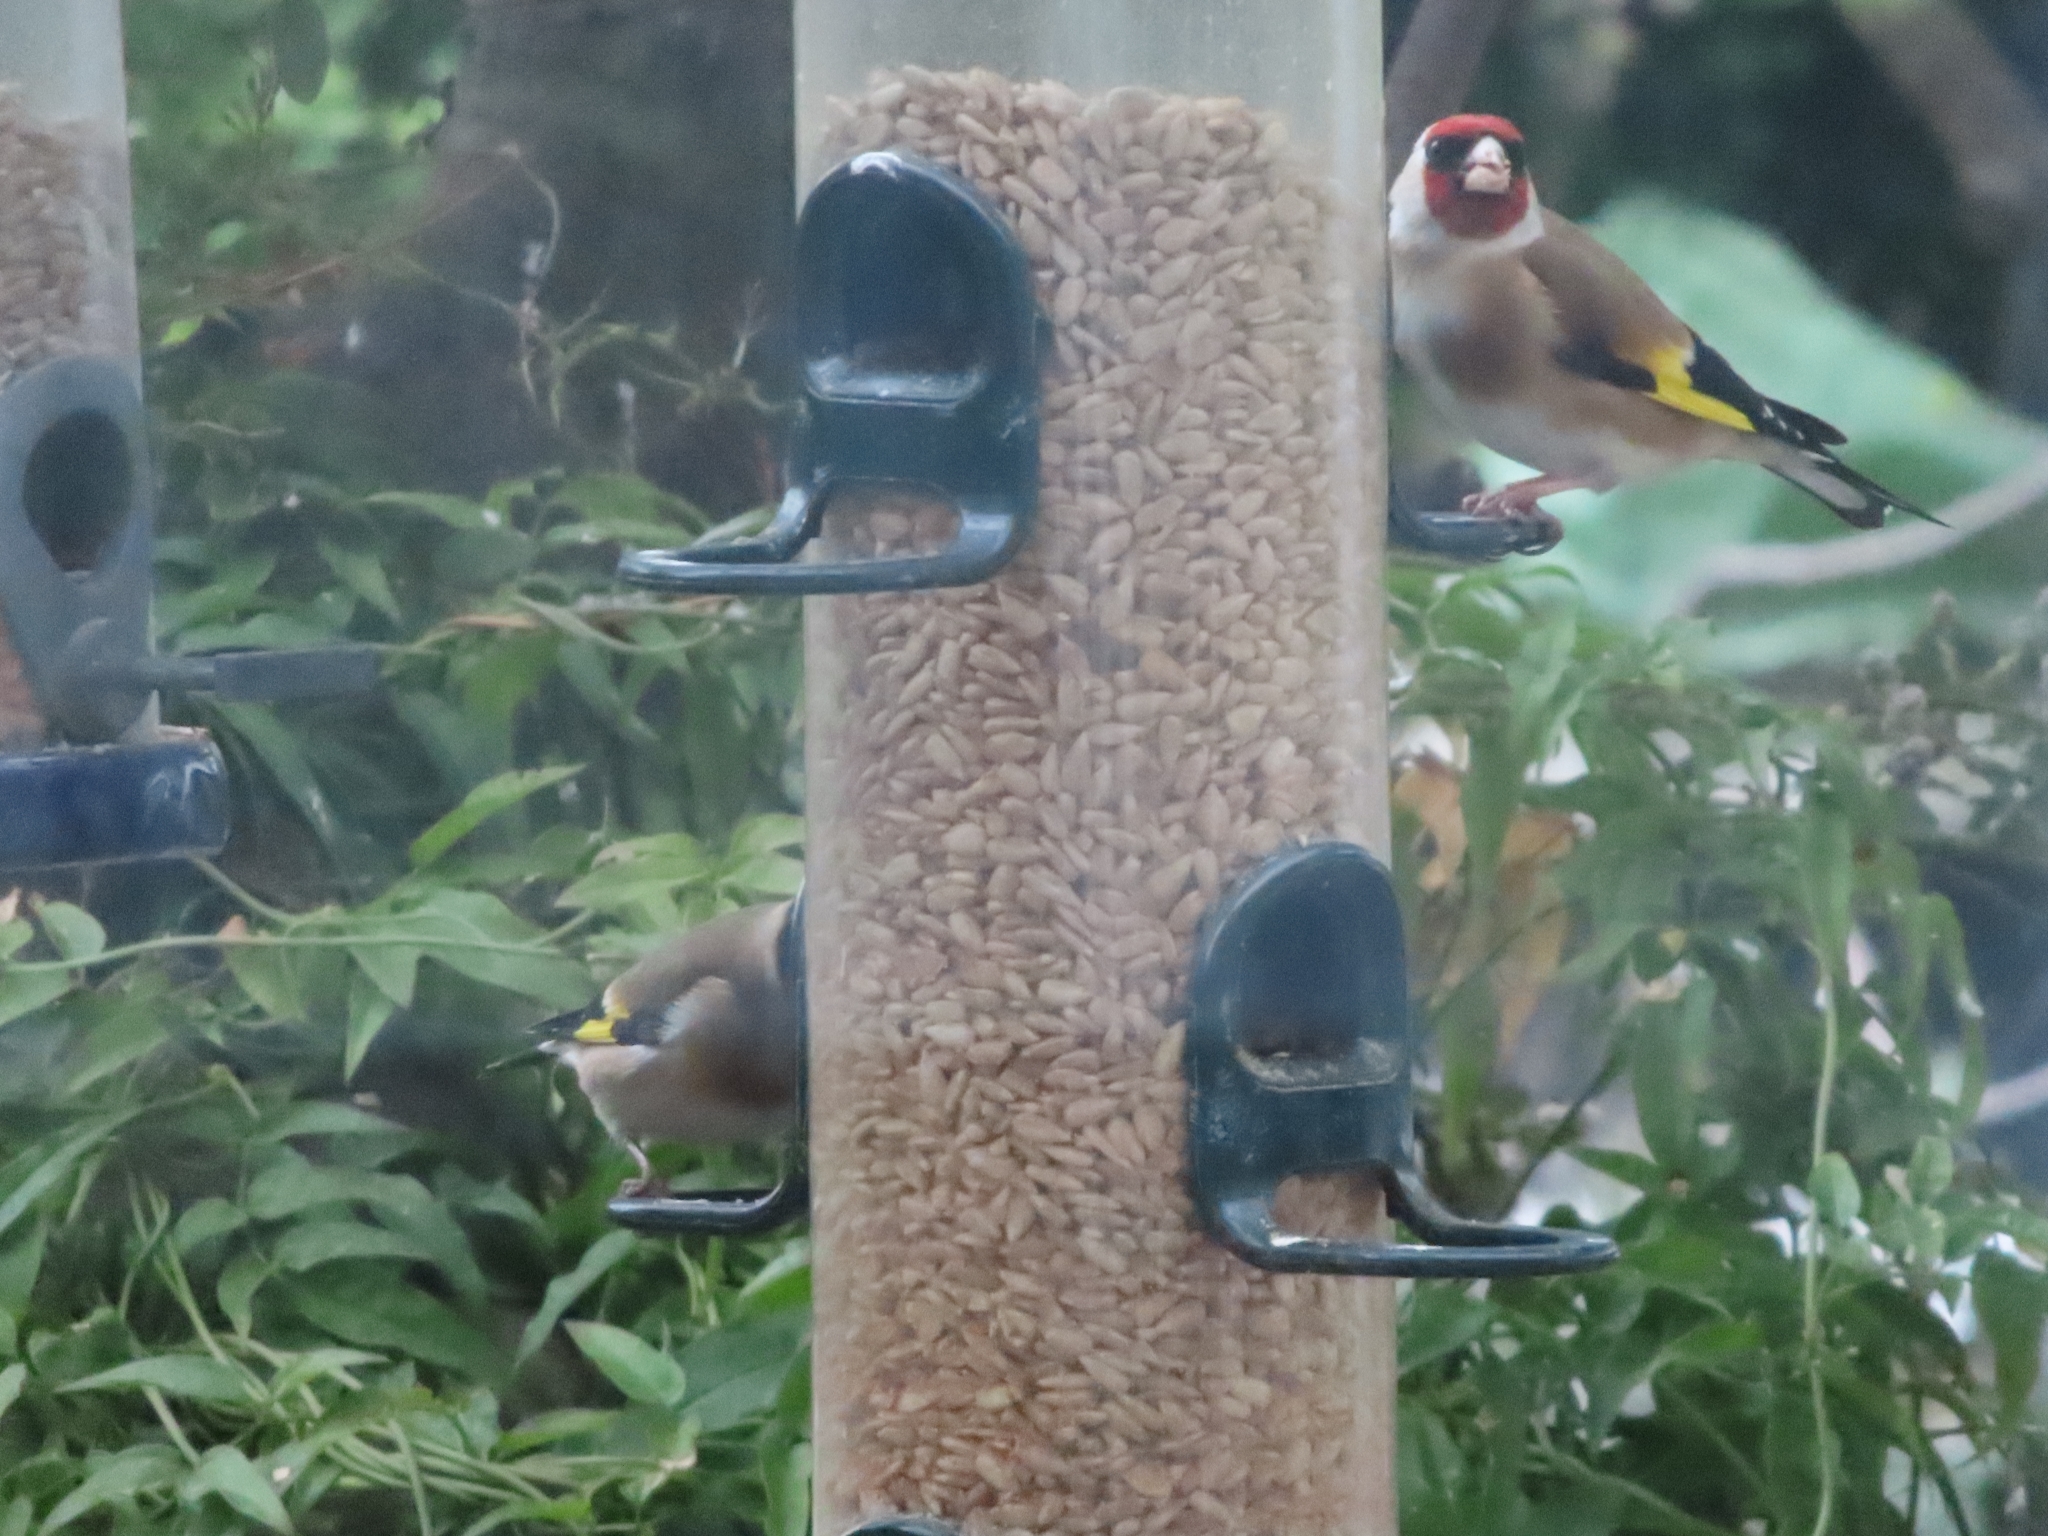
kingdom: Animalia
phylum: Chordata
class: Aves
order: Passeriformes
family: Fringillidae
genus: Carduelis
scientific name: Carduelis carduelis
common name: European goldfinch
